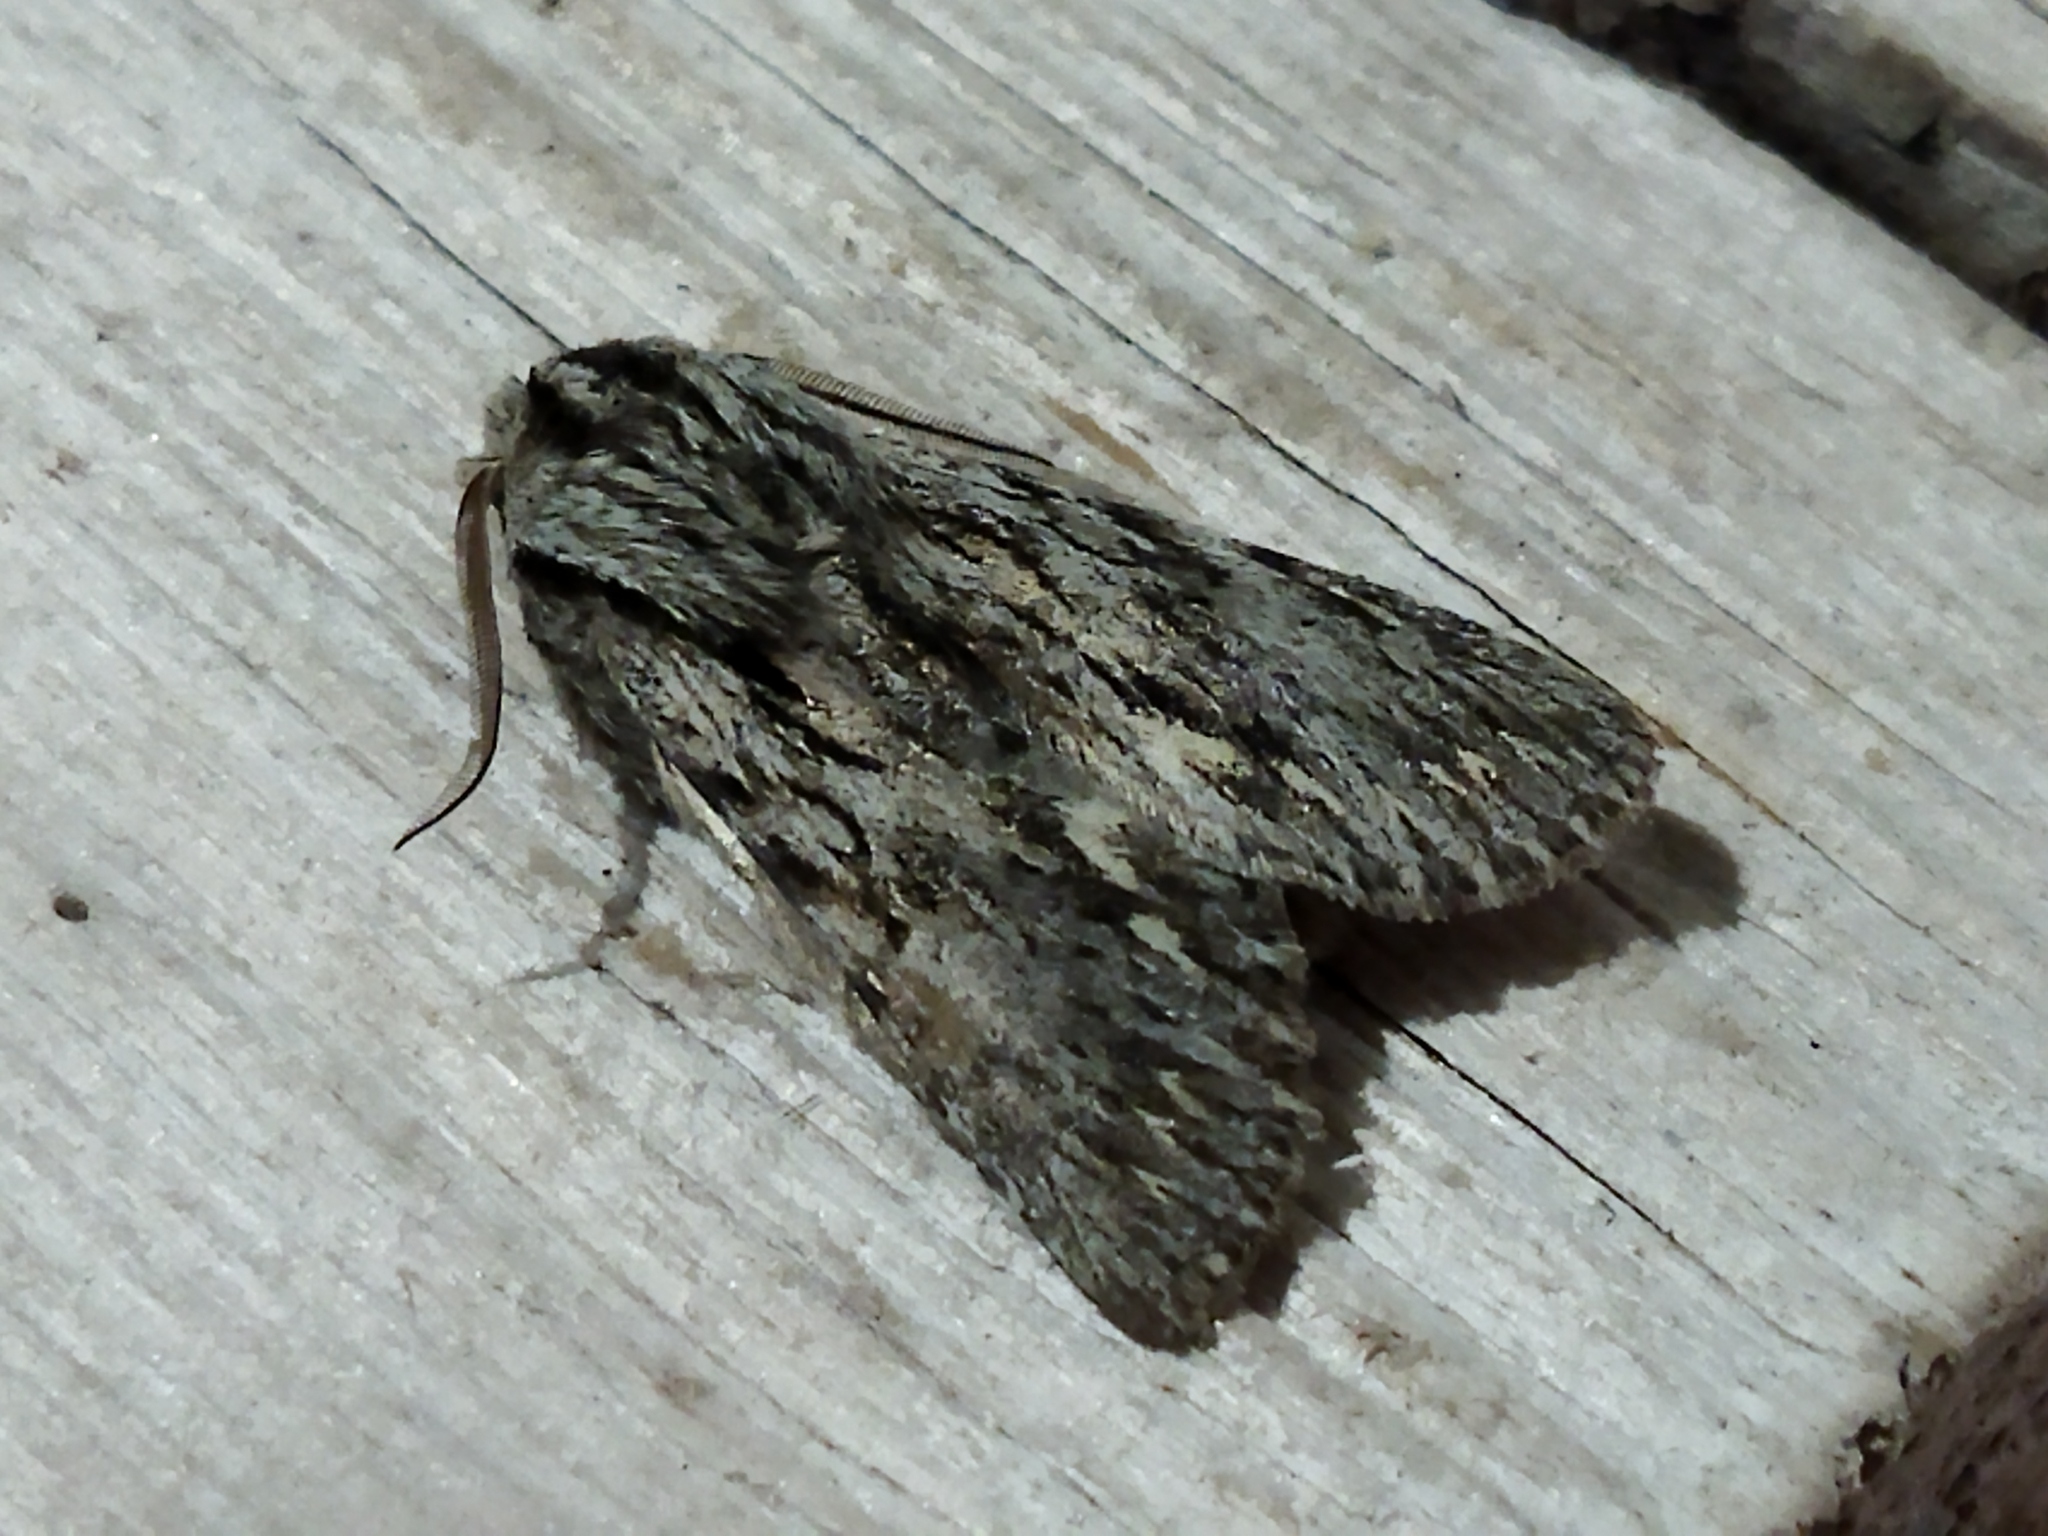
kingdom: Animalia
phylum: Arthropoda
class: Insecta
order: Lepidoptera
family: Noctuidae
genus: Asteroscopus
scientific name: Asteroscopus sphinx
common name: The sprawler
